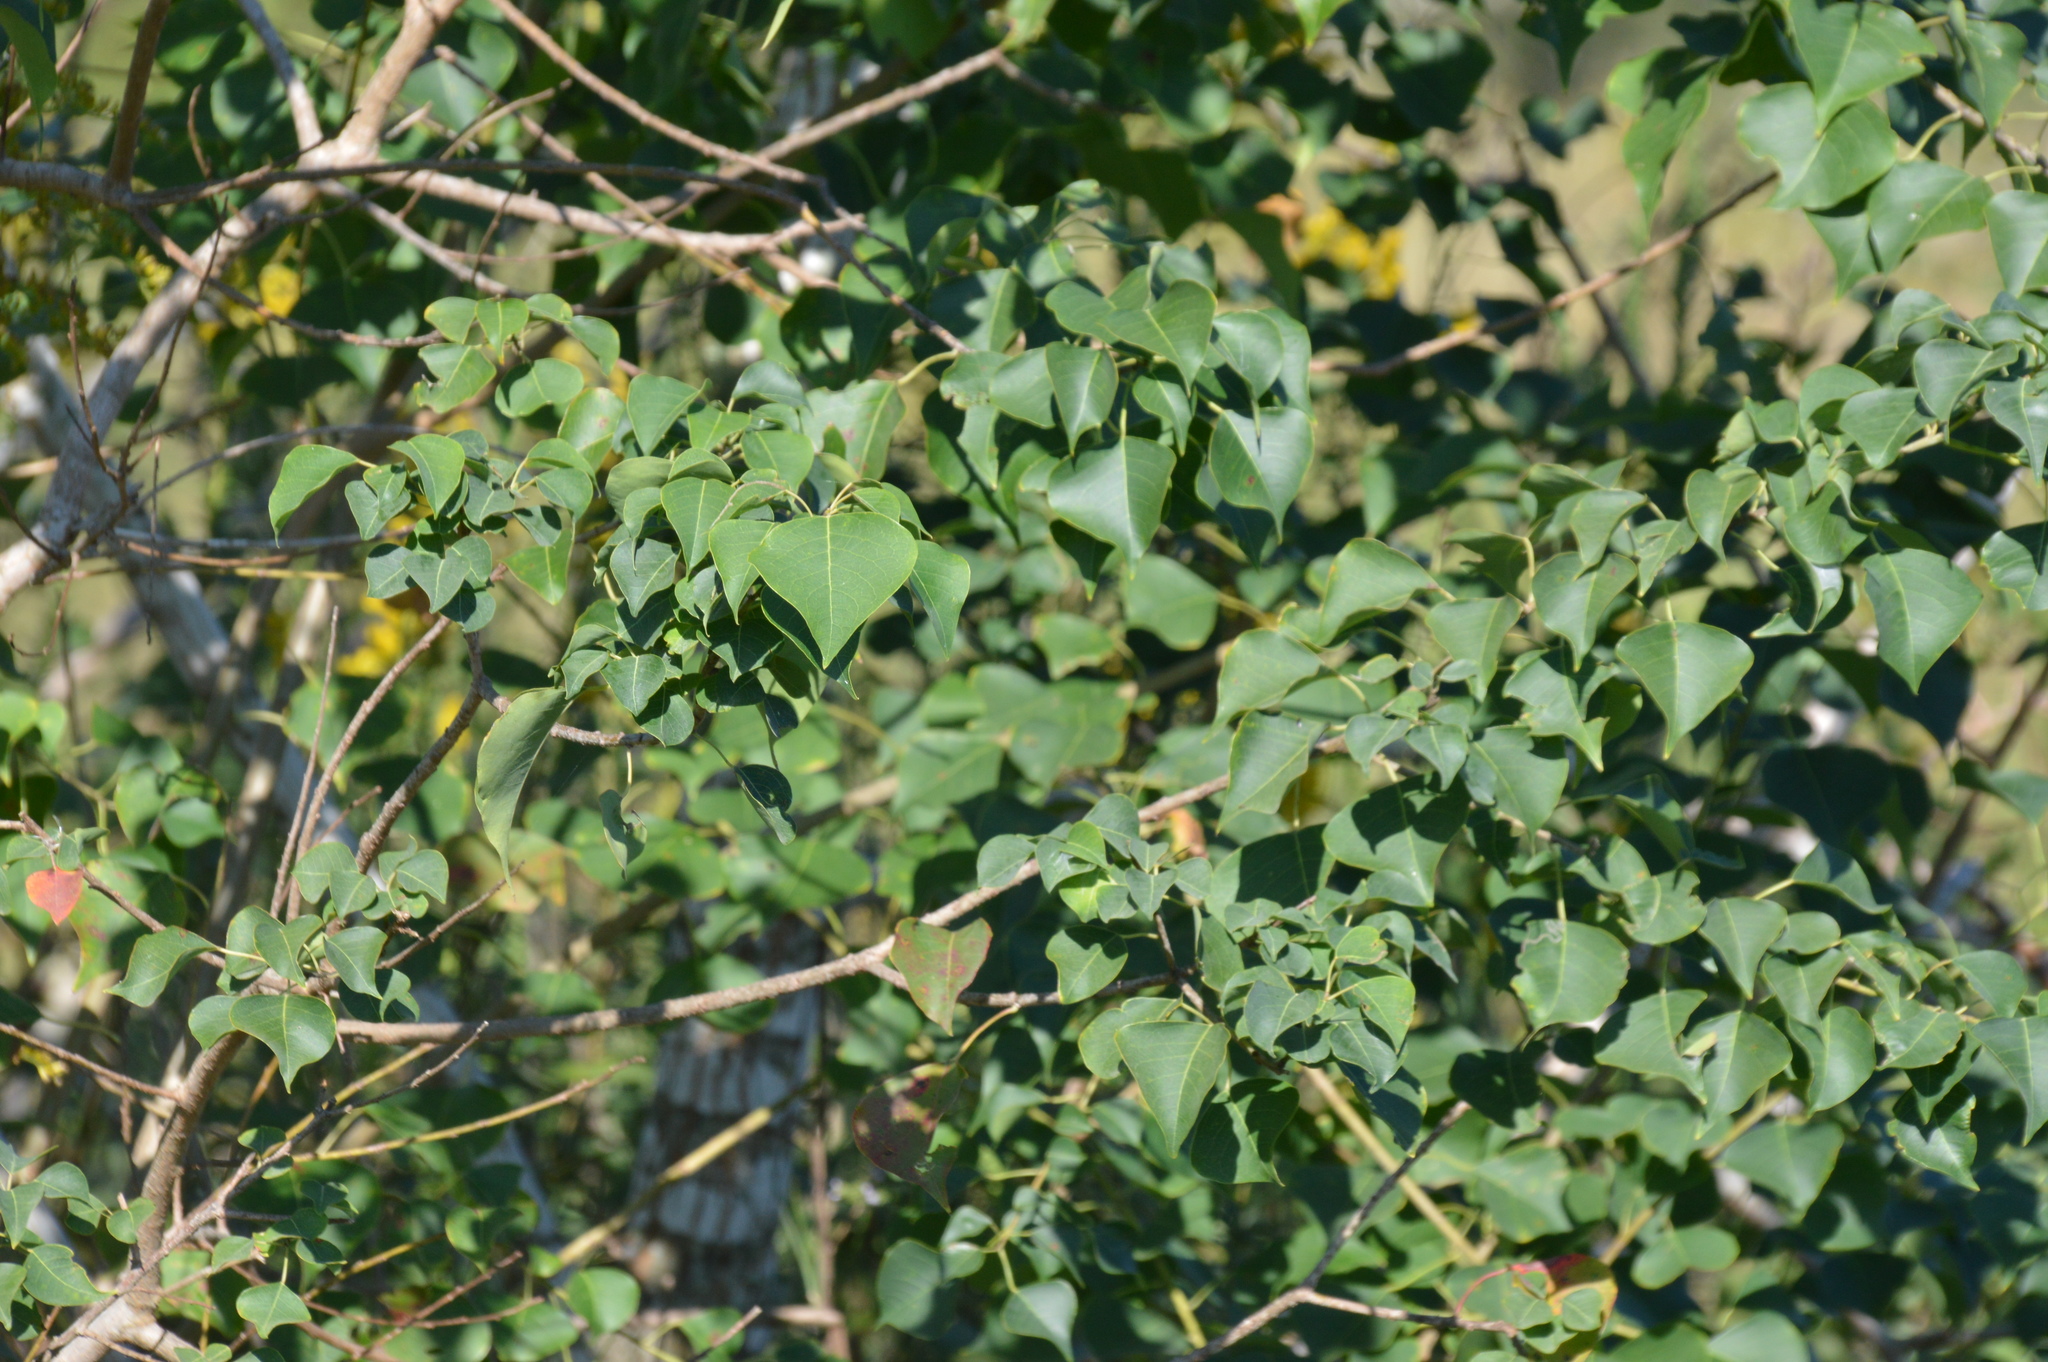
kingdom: Plantae
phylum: Tracheophyta
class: Magnoliopsida
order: Malpighiales
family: Euphorbiaceae
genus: Triadica
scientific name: Triadica sebifera
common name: Chinese tallow
